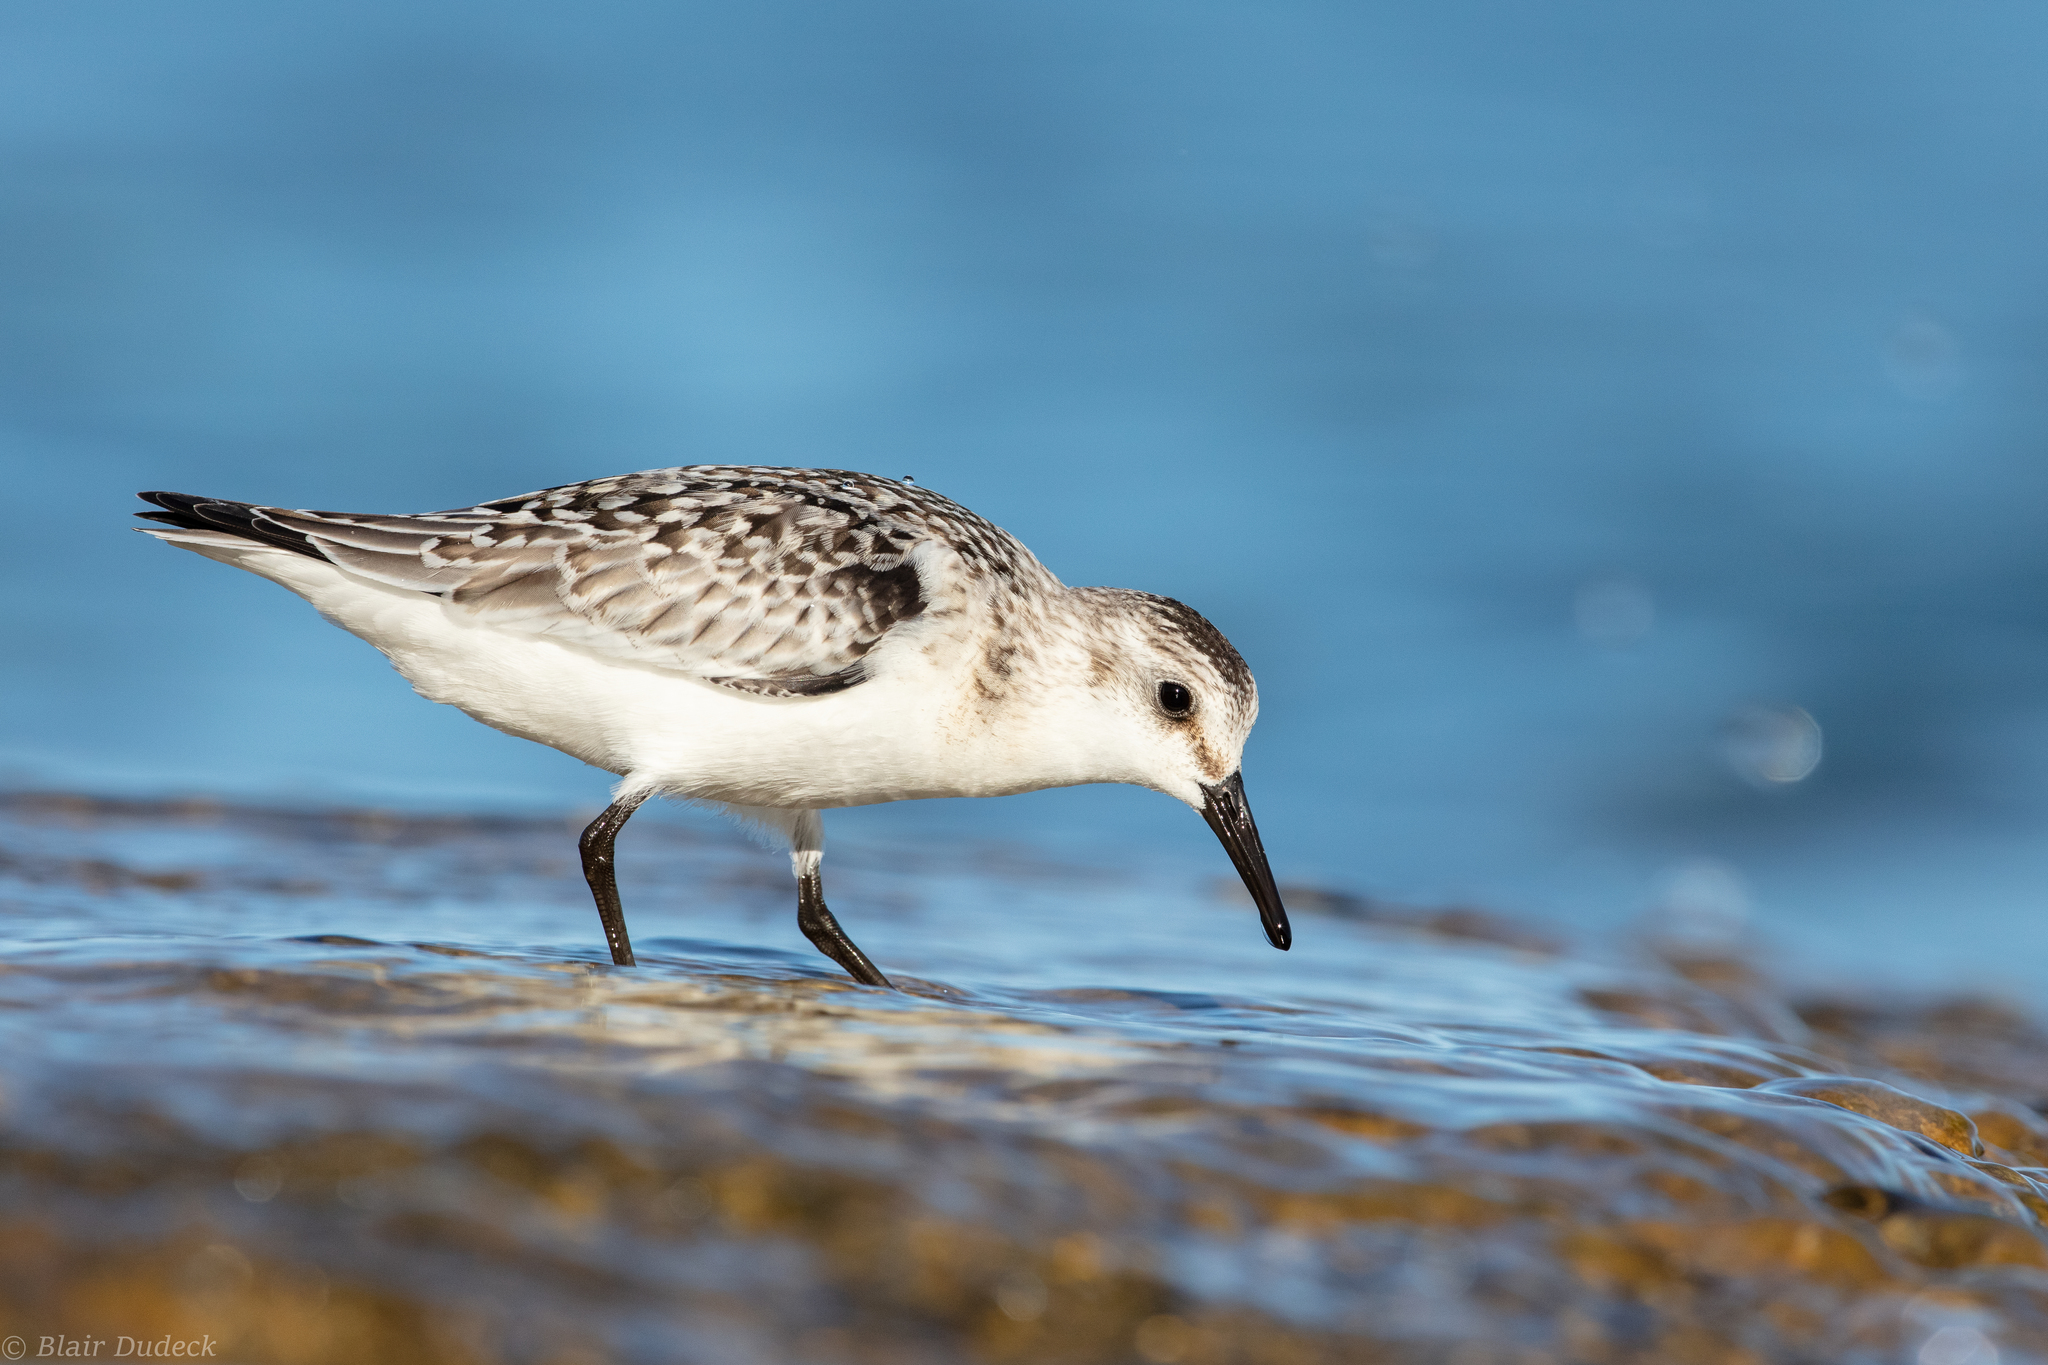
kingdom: Animalia
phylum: Chordata
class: Aves
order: Charadriiformes
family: Scolopacidae
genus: Calidris
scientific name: Calidris alba
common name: Sanderling
